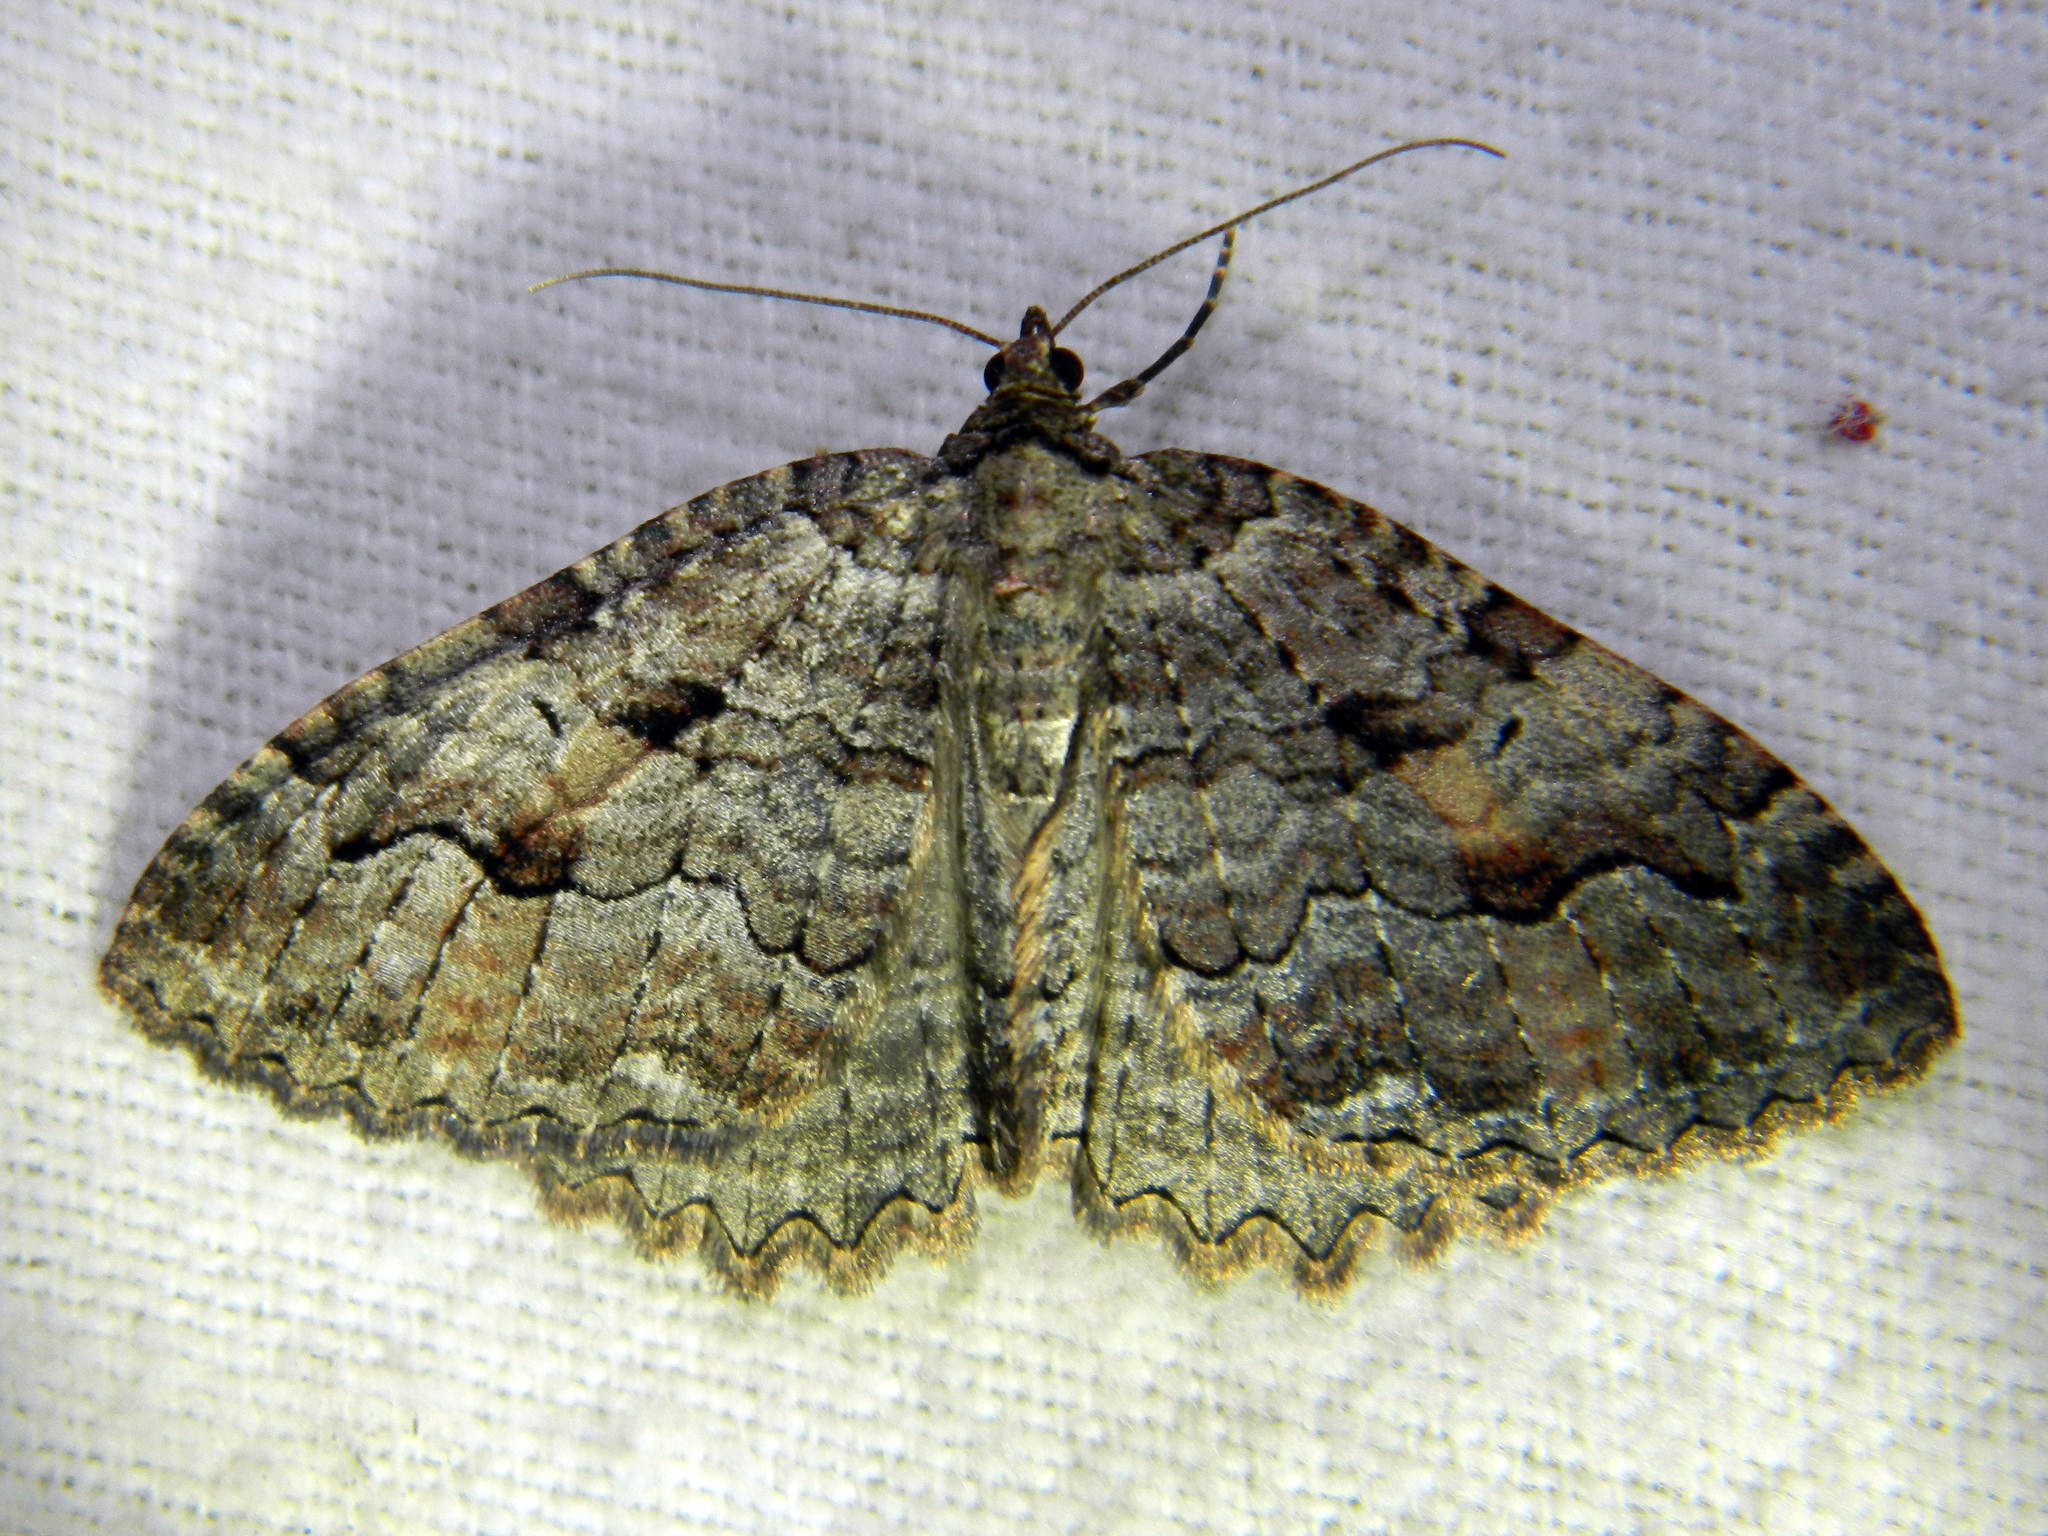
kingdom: Animalia
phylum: Arthropoda
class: Insecta
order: Lepidoptera
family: Geometridae
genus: Triphosa
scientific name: Triphosa haesitata
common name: Tissue moth
